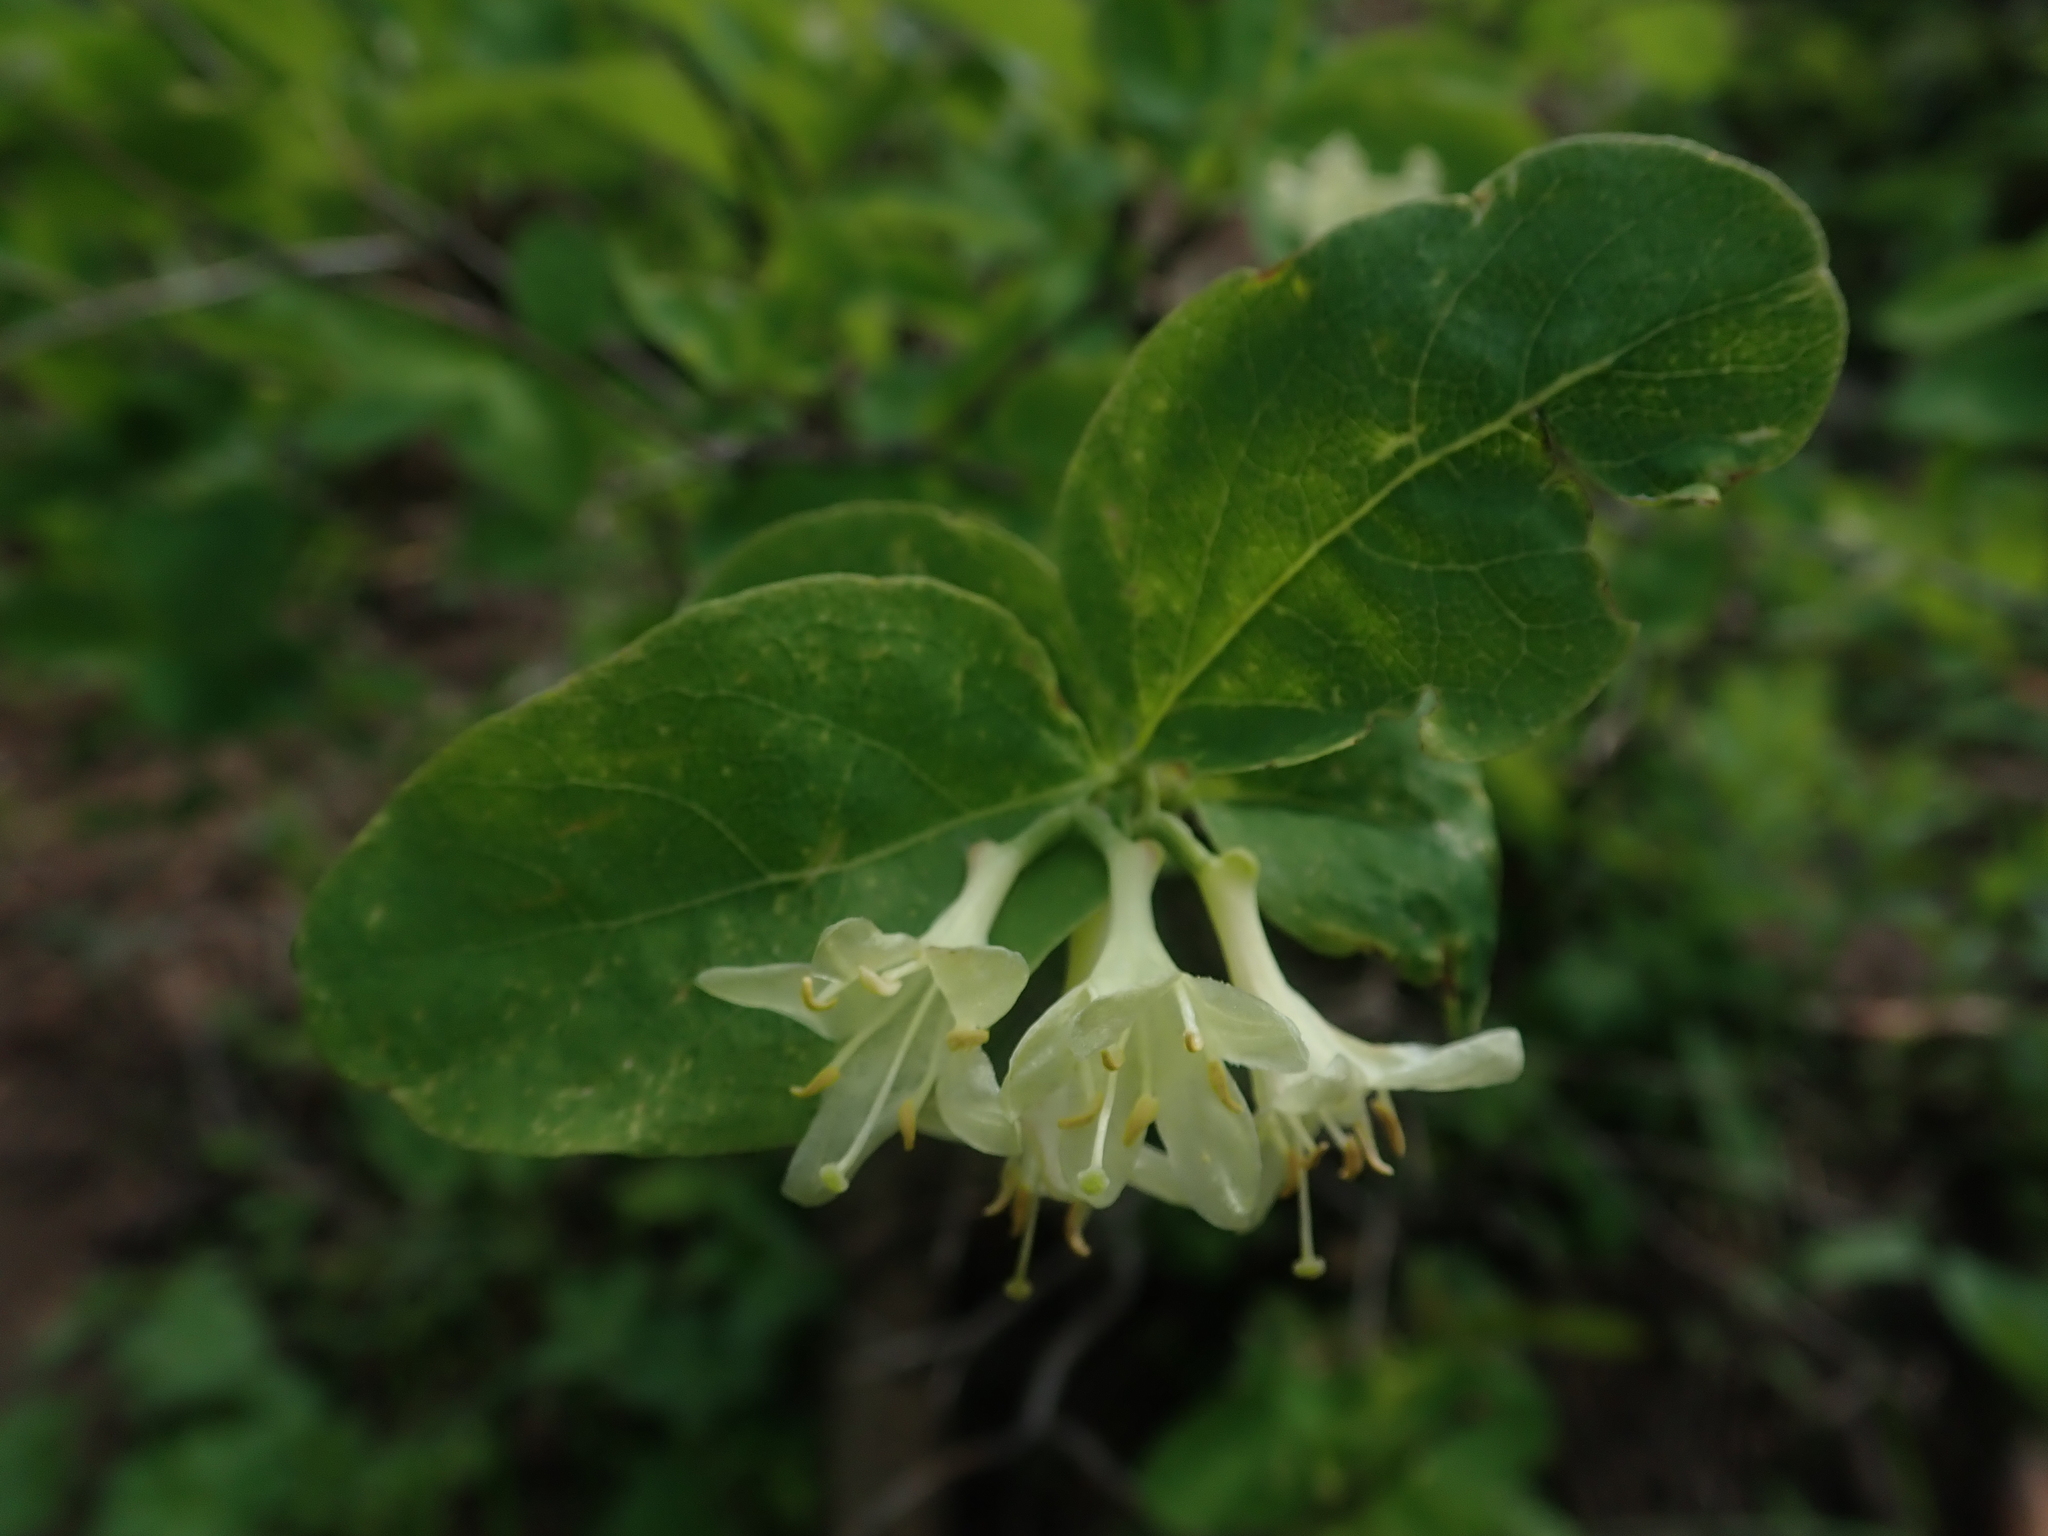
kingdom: Plantae
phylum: Tracheophyta
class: Magnoliopsida
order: Dipsacales
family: Caprifoliaceae
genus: Lonicera
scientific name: Lonicera utahensis
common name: Utah honeysuckle
